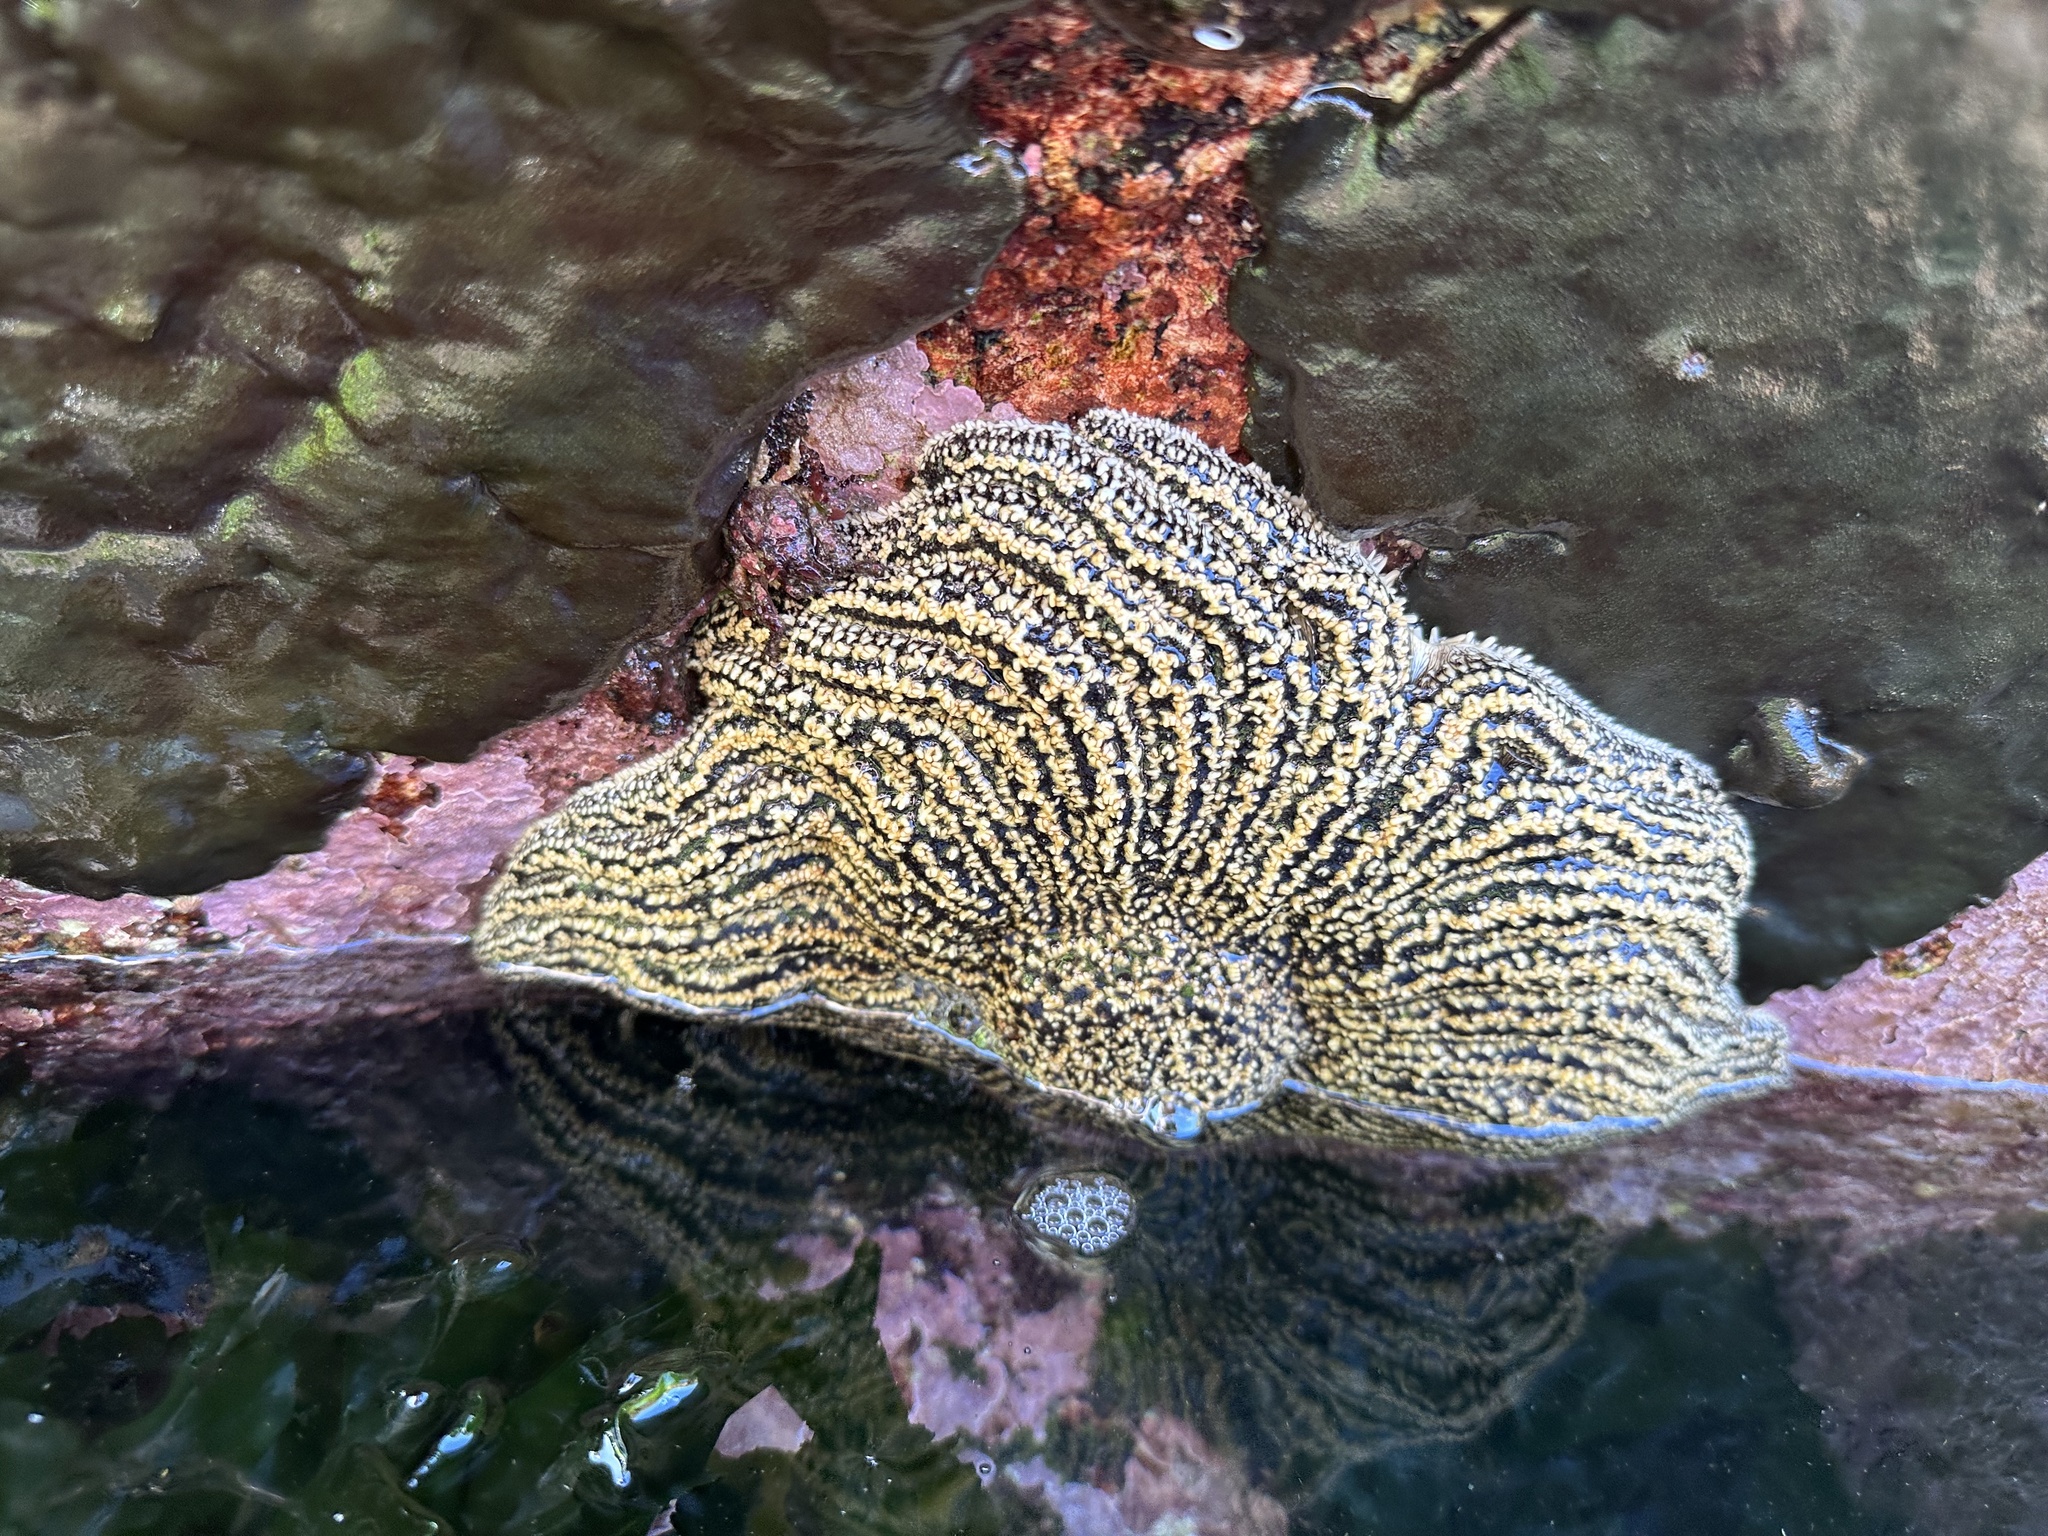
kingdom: Animalia
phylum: Echinodermata
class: Asteroidea
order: Forcipulatida
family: Heliasteridae
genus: Heliaster
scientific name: Heliaster helianthus
